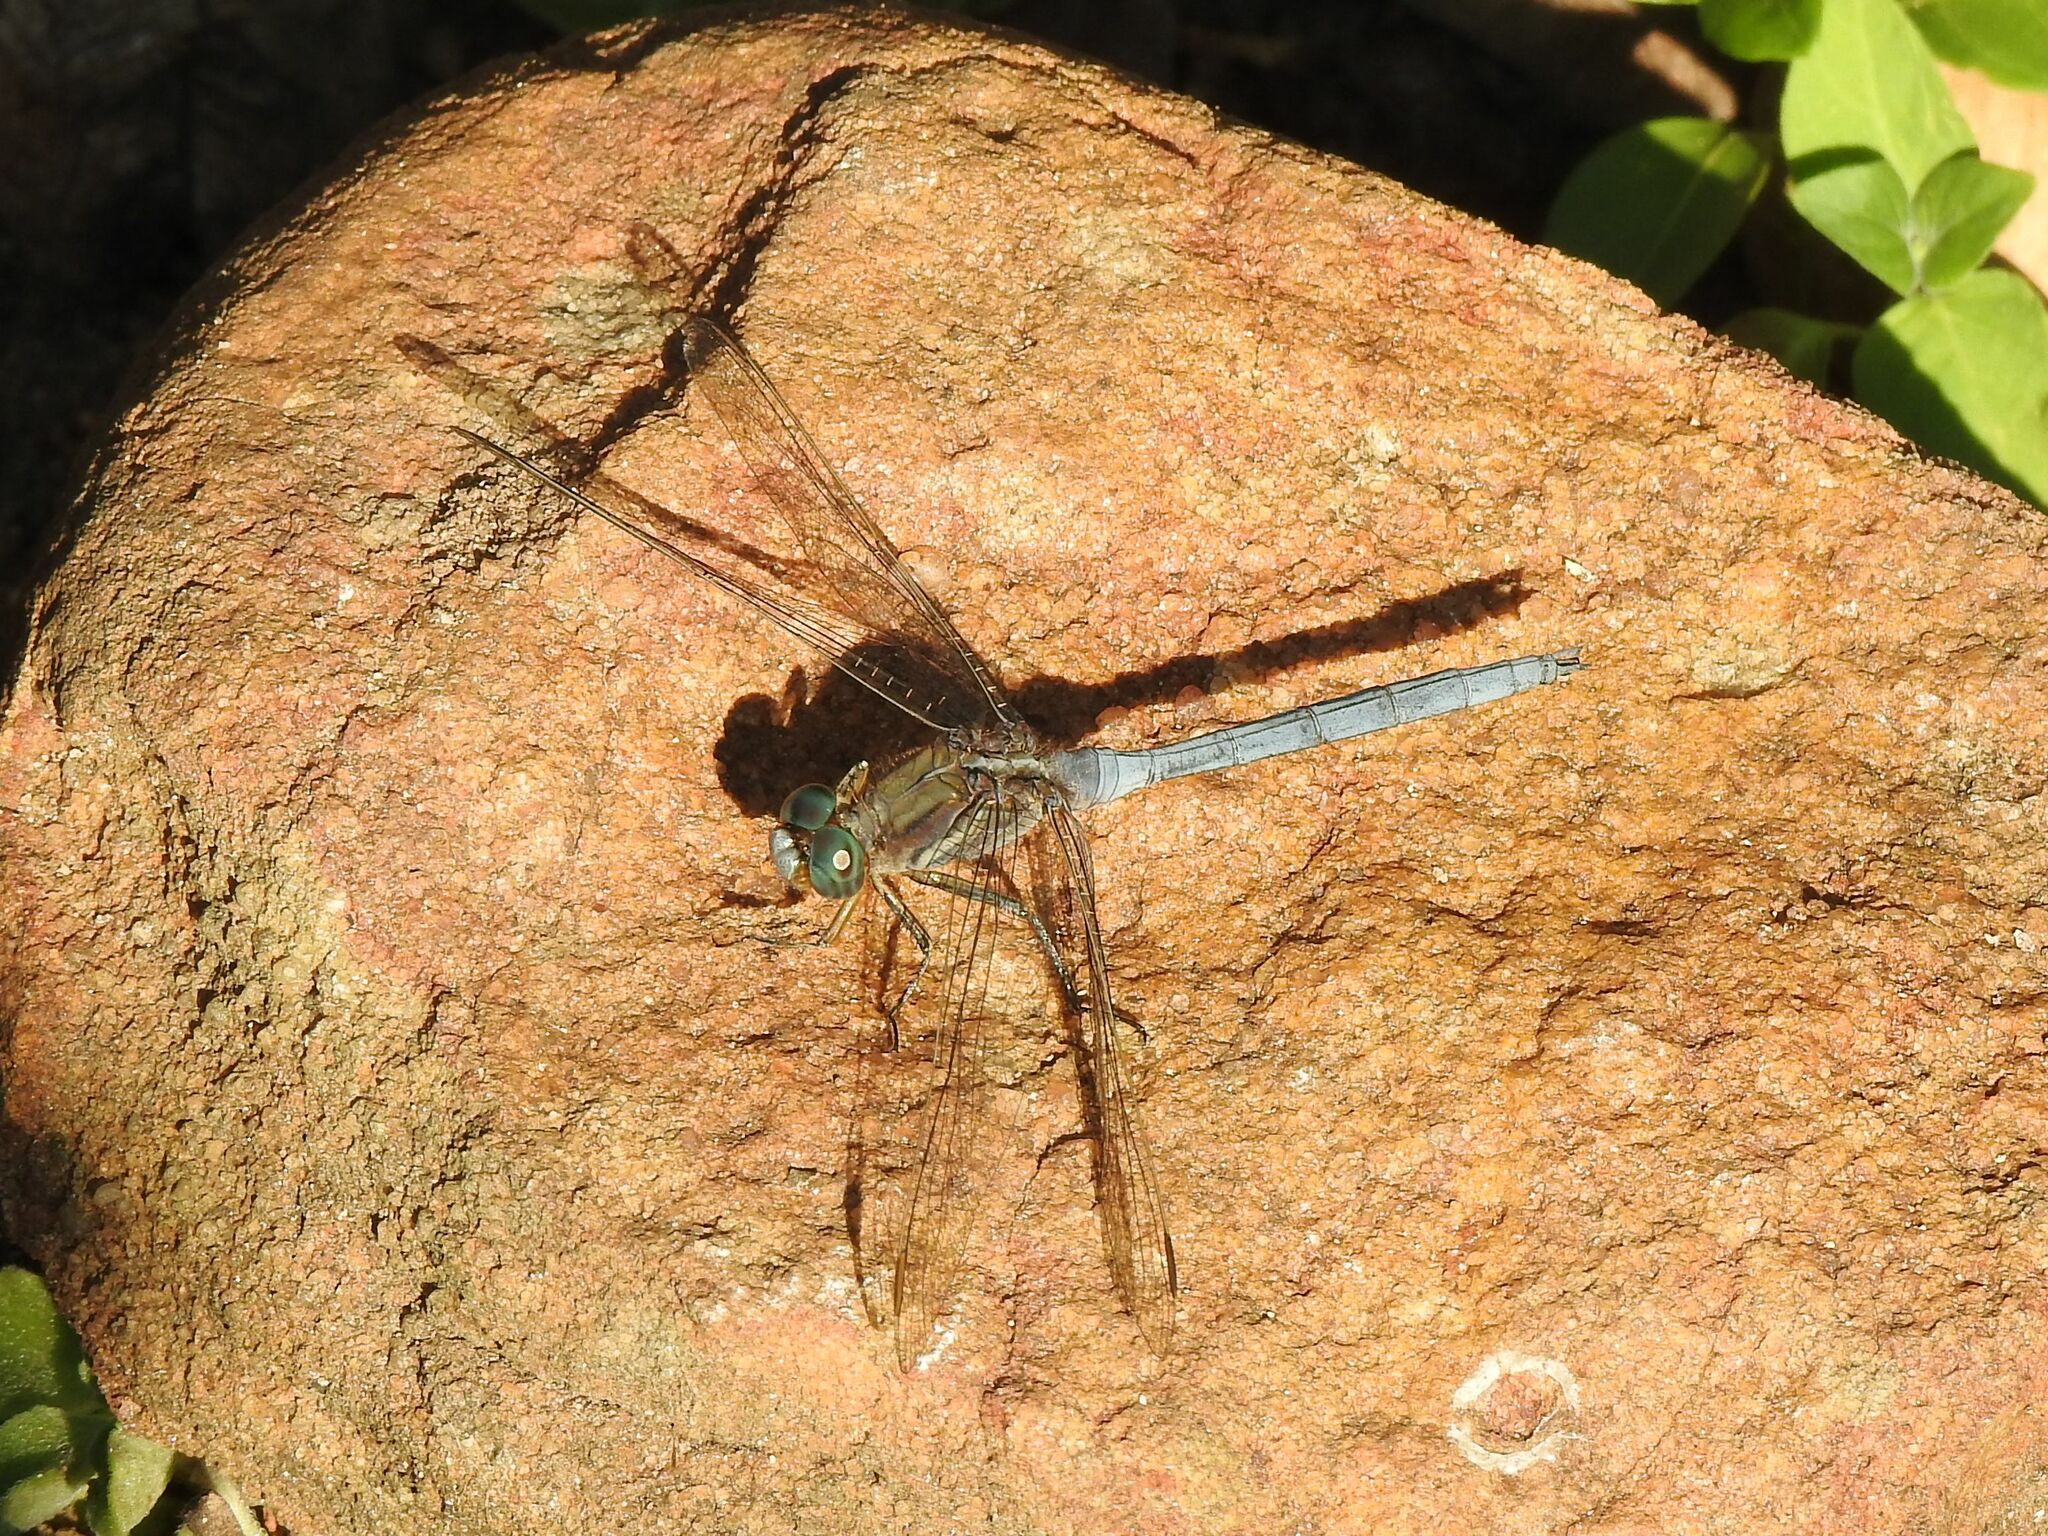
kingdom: Animalia
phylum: Arthropoda
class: Insecta
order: Odonata
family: Libellulidae
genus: Orthetrum
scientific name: Orthetrum chrysostigma
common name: Epaulet skimmer
